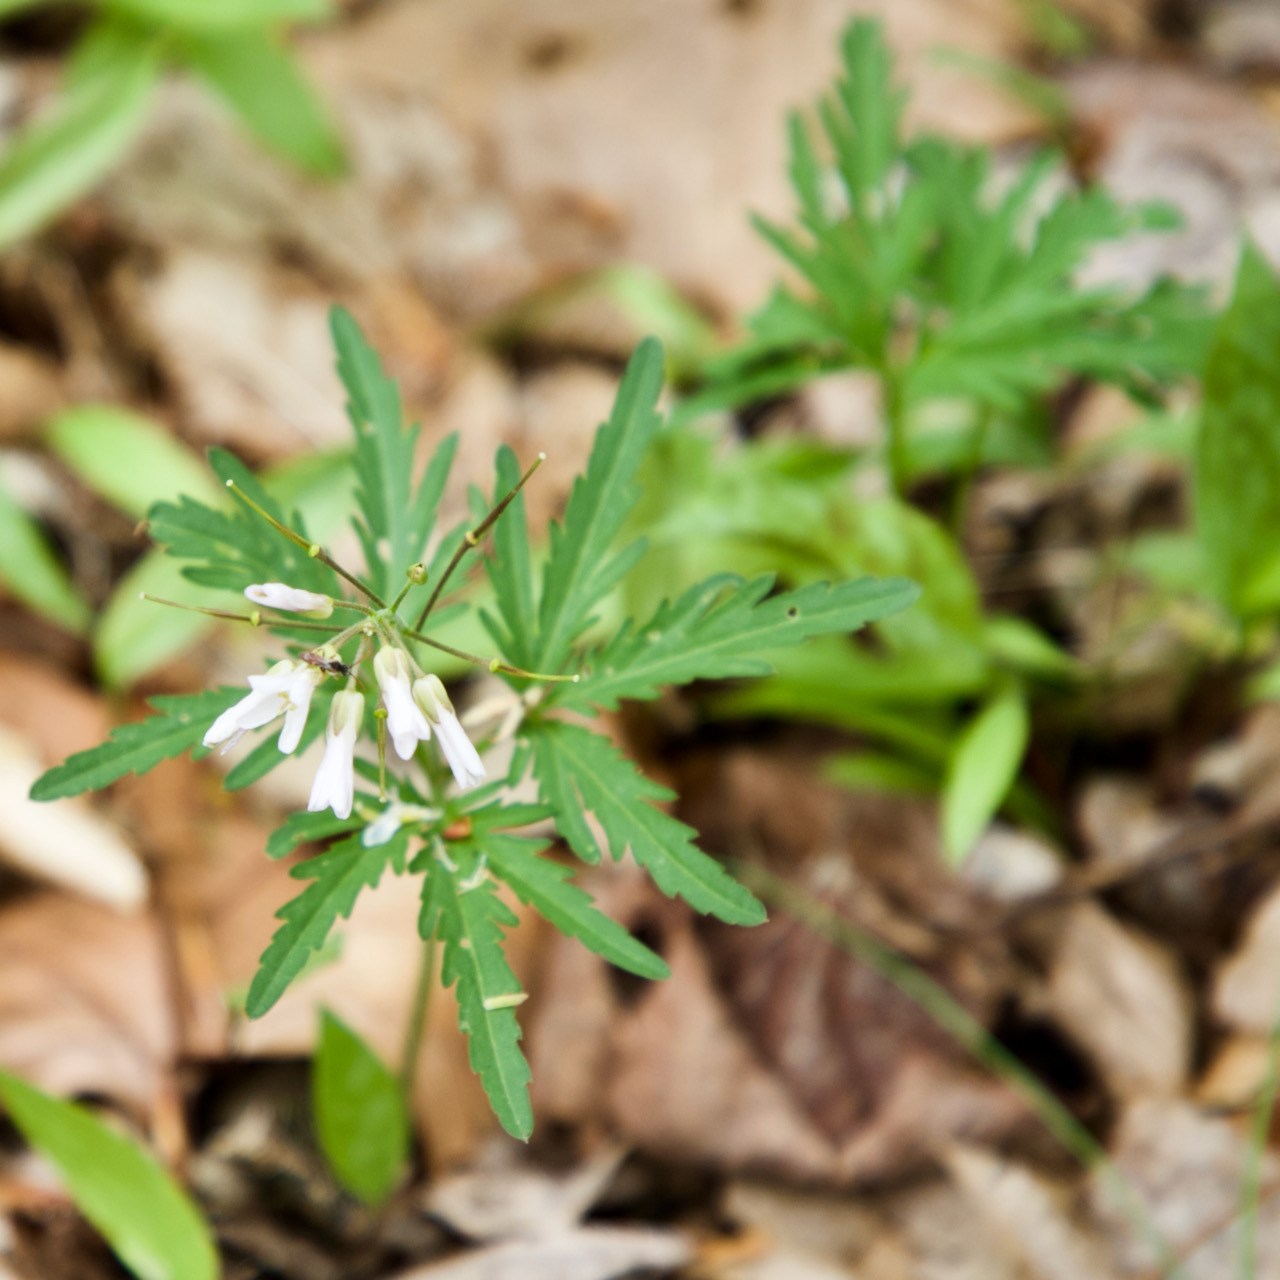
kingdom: Plantae
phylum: Tracheophyta
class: Magnoliopsida
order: Brassicales
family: Brassicaceae
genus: Cardamine
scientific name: Cardamine concatenata
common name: Cut-leaf toothcup
